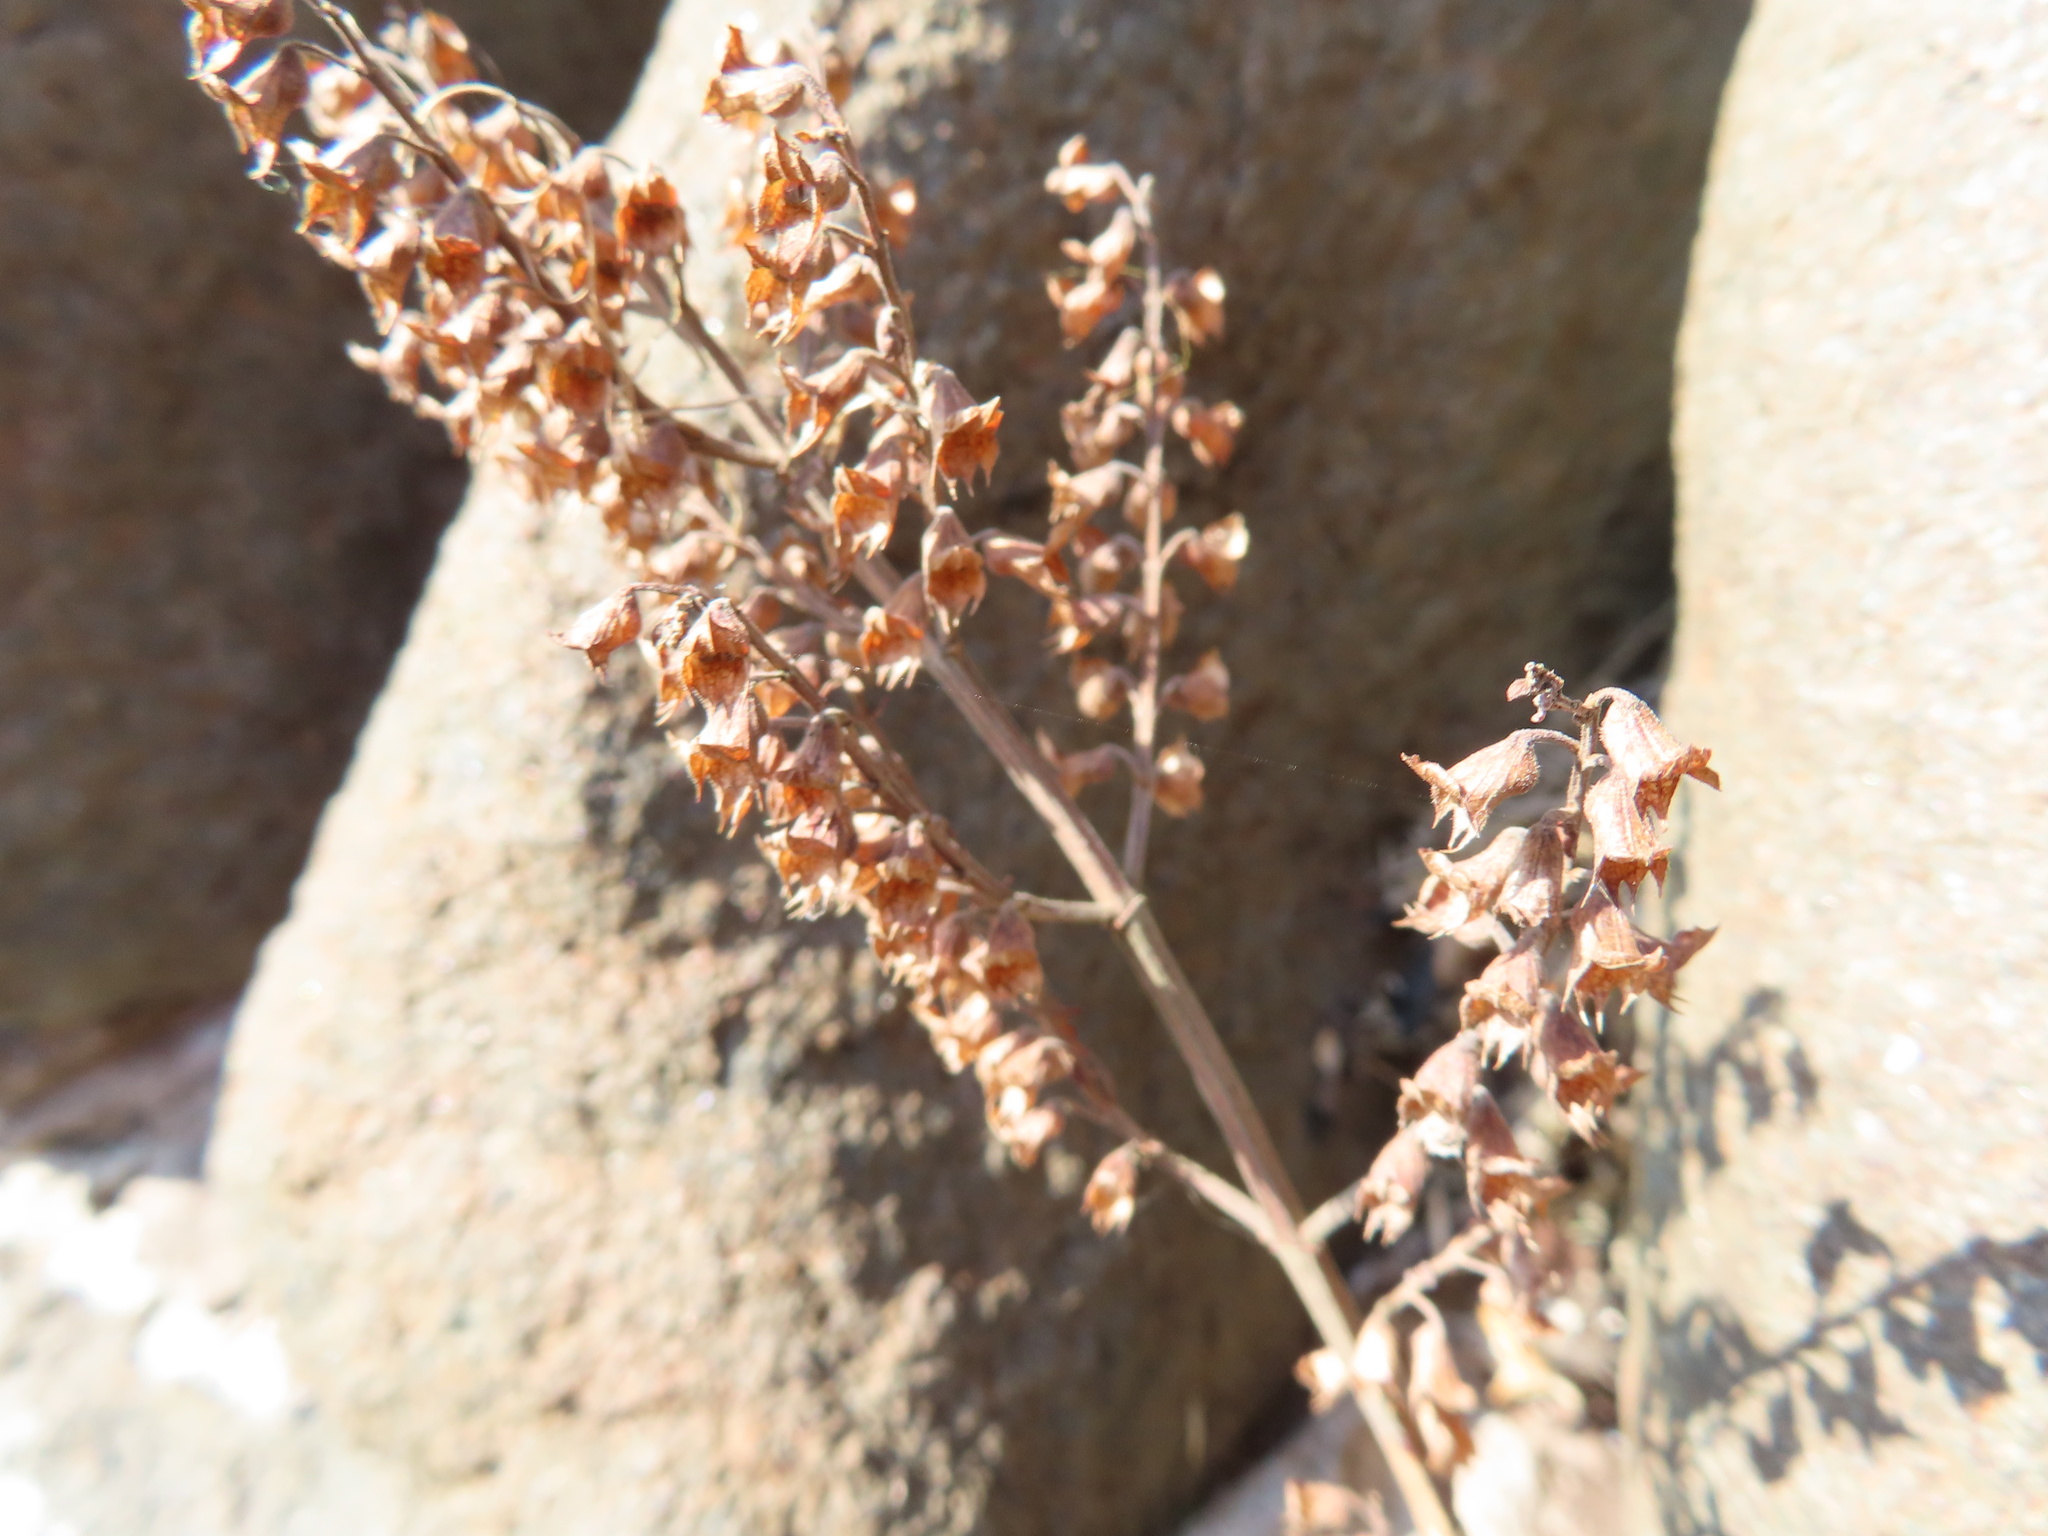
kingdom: Plantae
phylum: Tracheophyta
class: Magnoliopsida
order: Lamiales
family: Lamiaceae
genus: Teucrium
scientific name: Teucrium scorodonia
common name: Woodland germander
